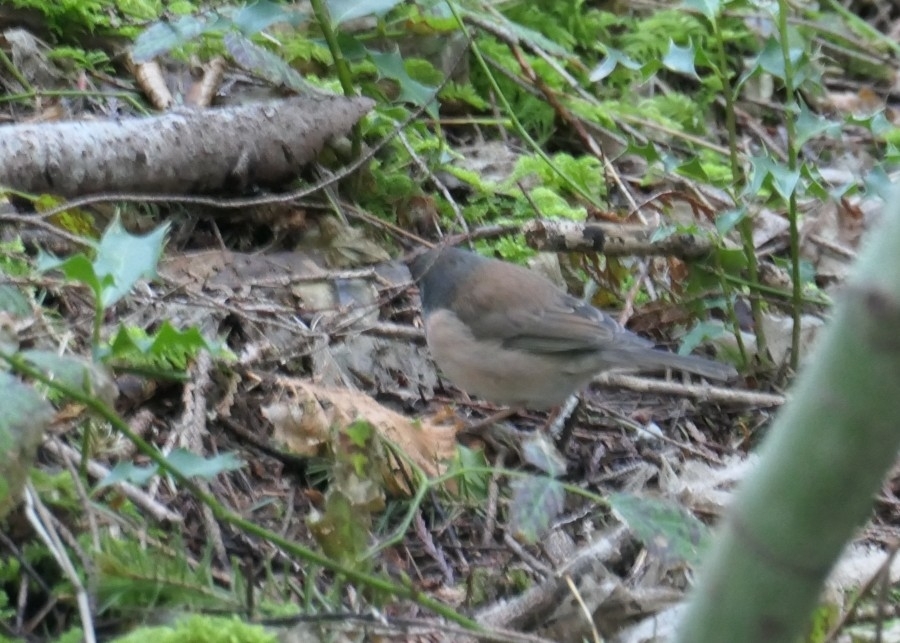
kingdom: Animalia
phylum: Chordata
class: Aves
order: Passeriformes
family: Passerellidae
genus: Junco
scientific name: Junco hyemalis
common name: Dark-eyed junco
